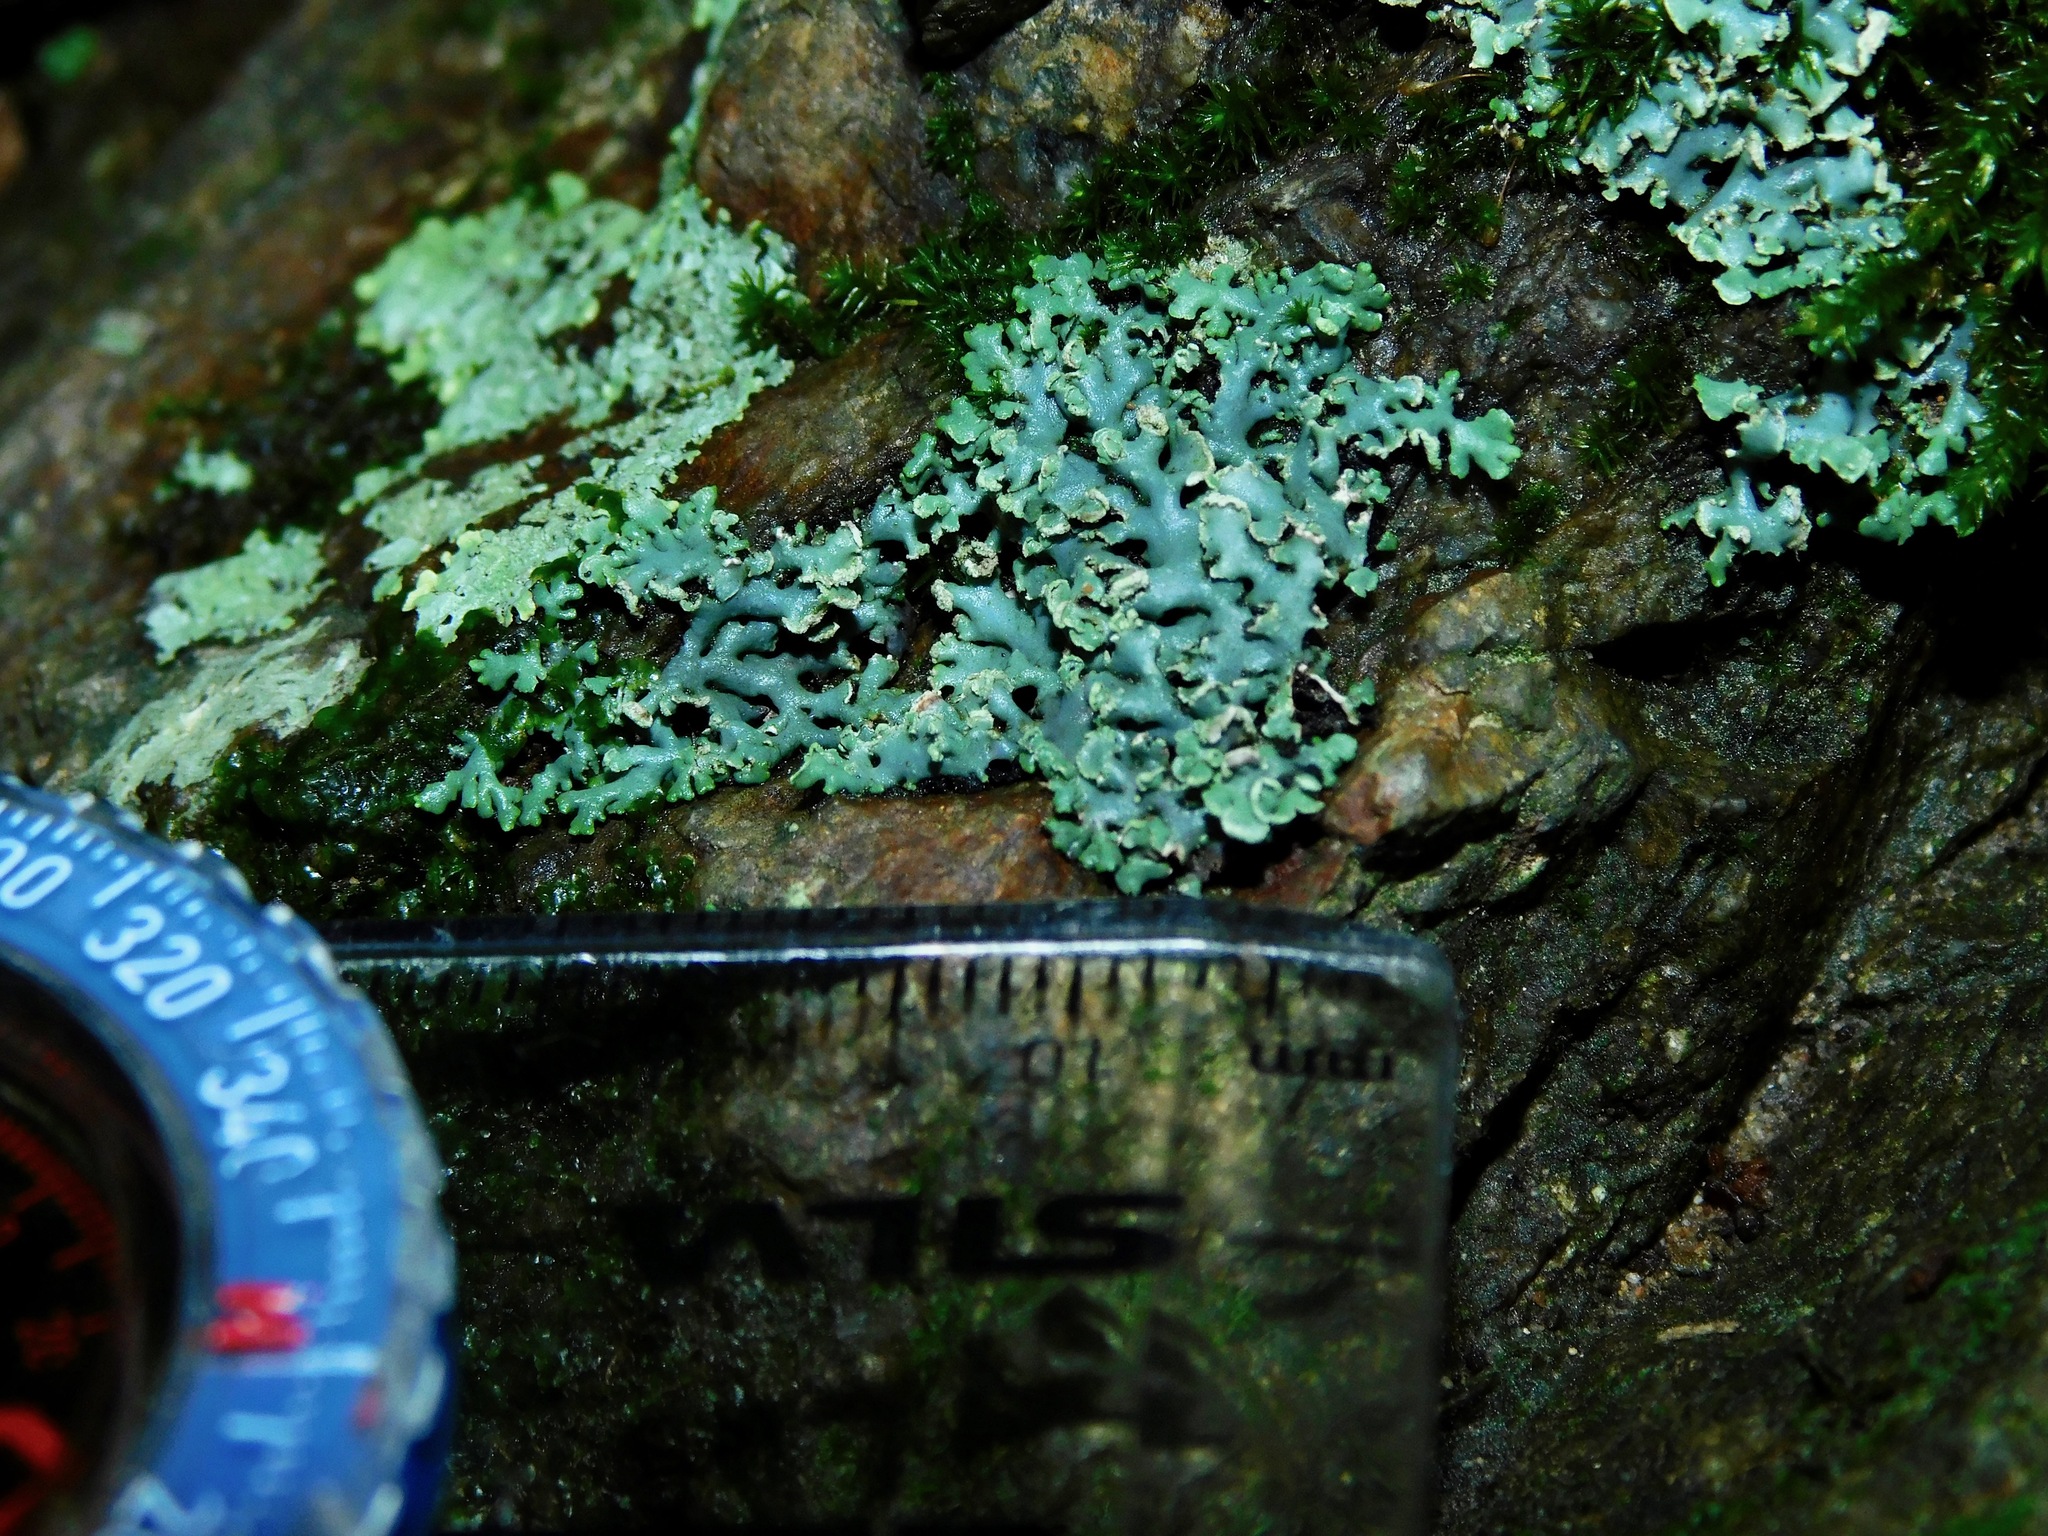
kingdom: Fungi
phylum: Ascomycota
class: Lecanoromycetes
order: Caliciales
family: Physciaceae
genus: Polyblastidium
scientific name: Polyblastidium casarettianum
